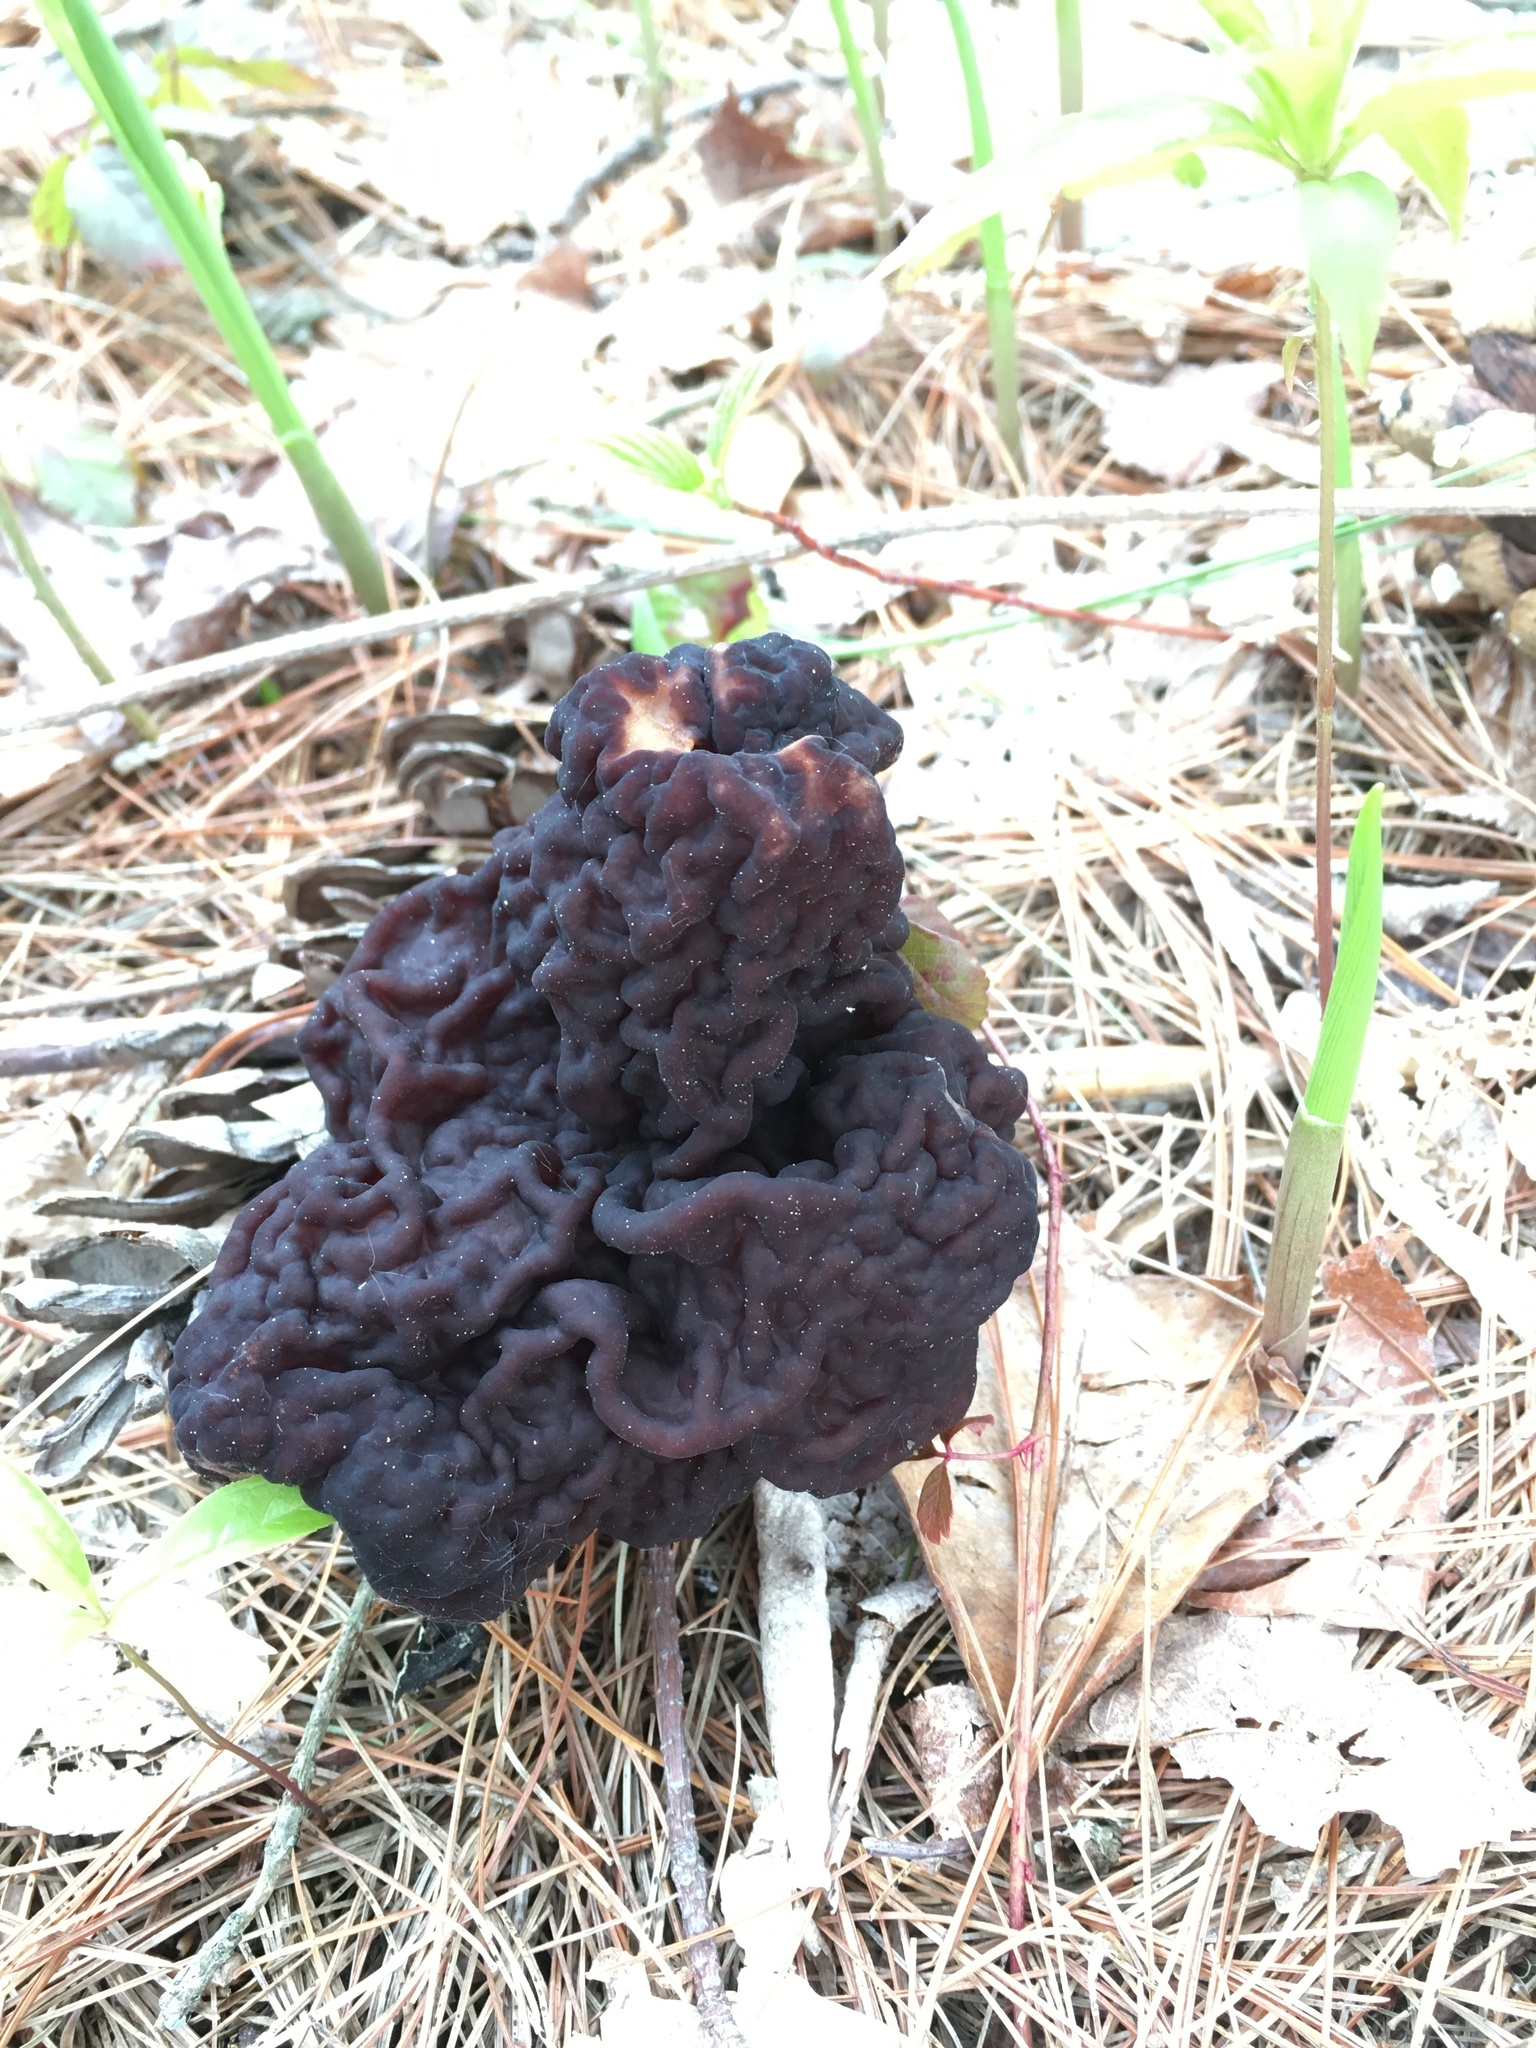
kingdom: Fungi
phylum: Ascomycota
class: Pezizomycetes
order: Pezizales
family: Discinaceae
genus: Gyromitra
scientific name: Gyromitra esculenta
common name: False morel
